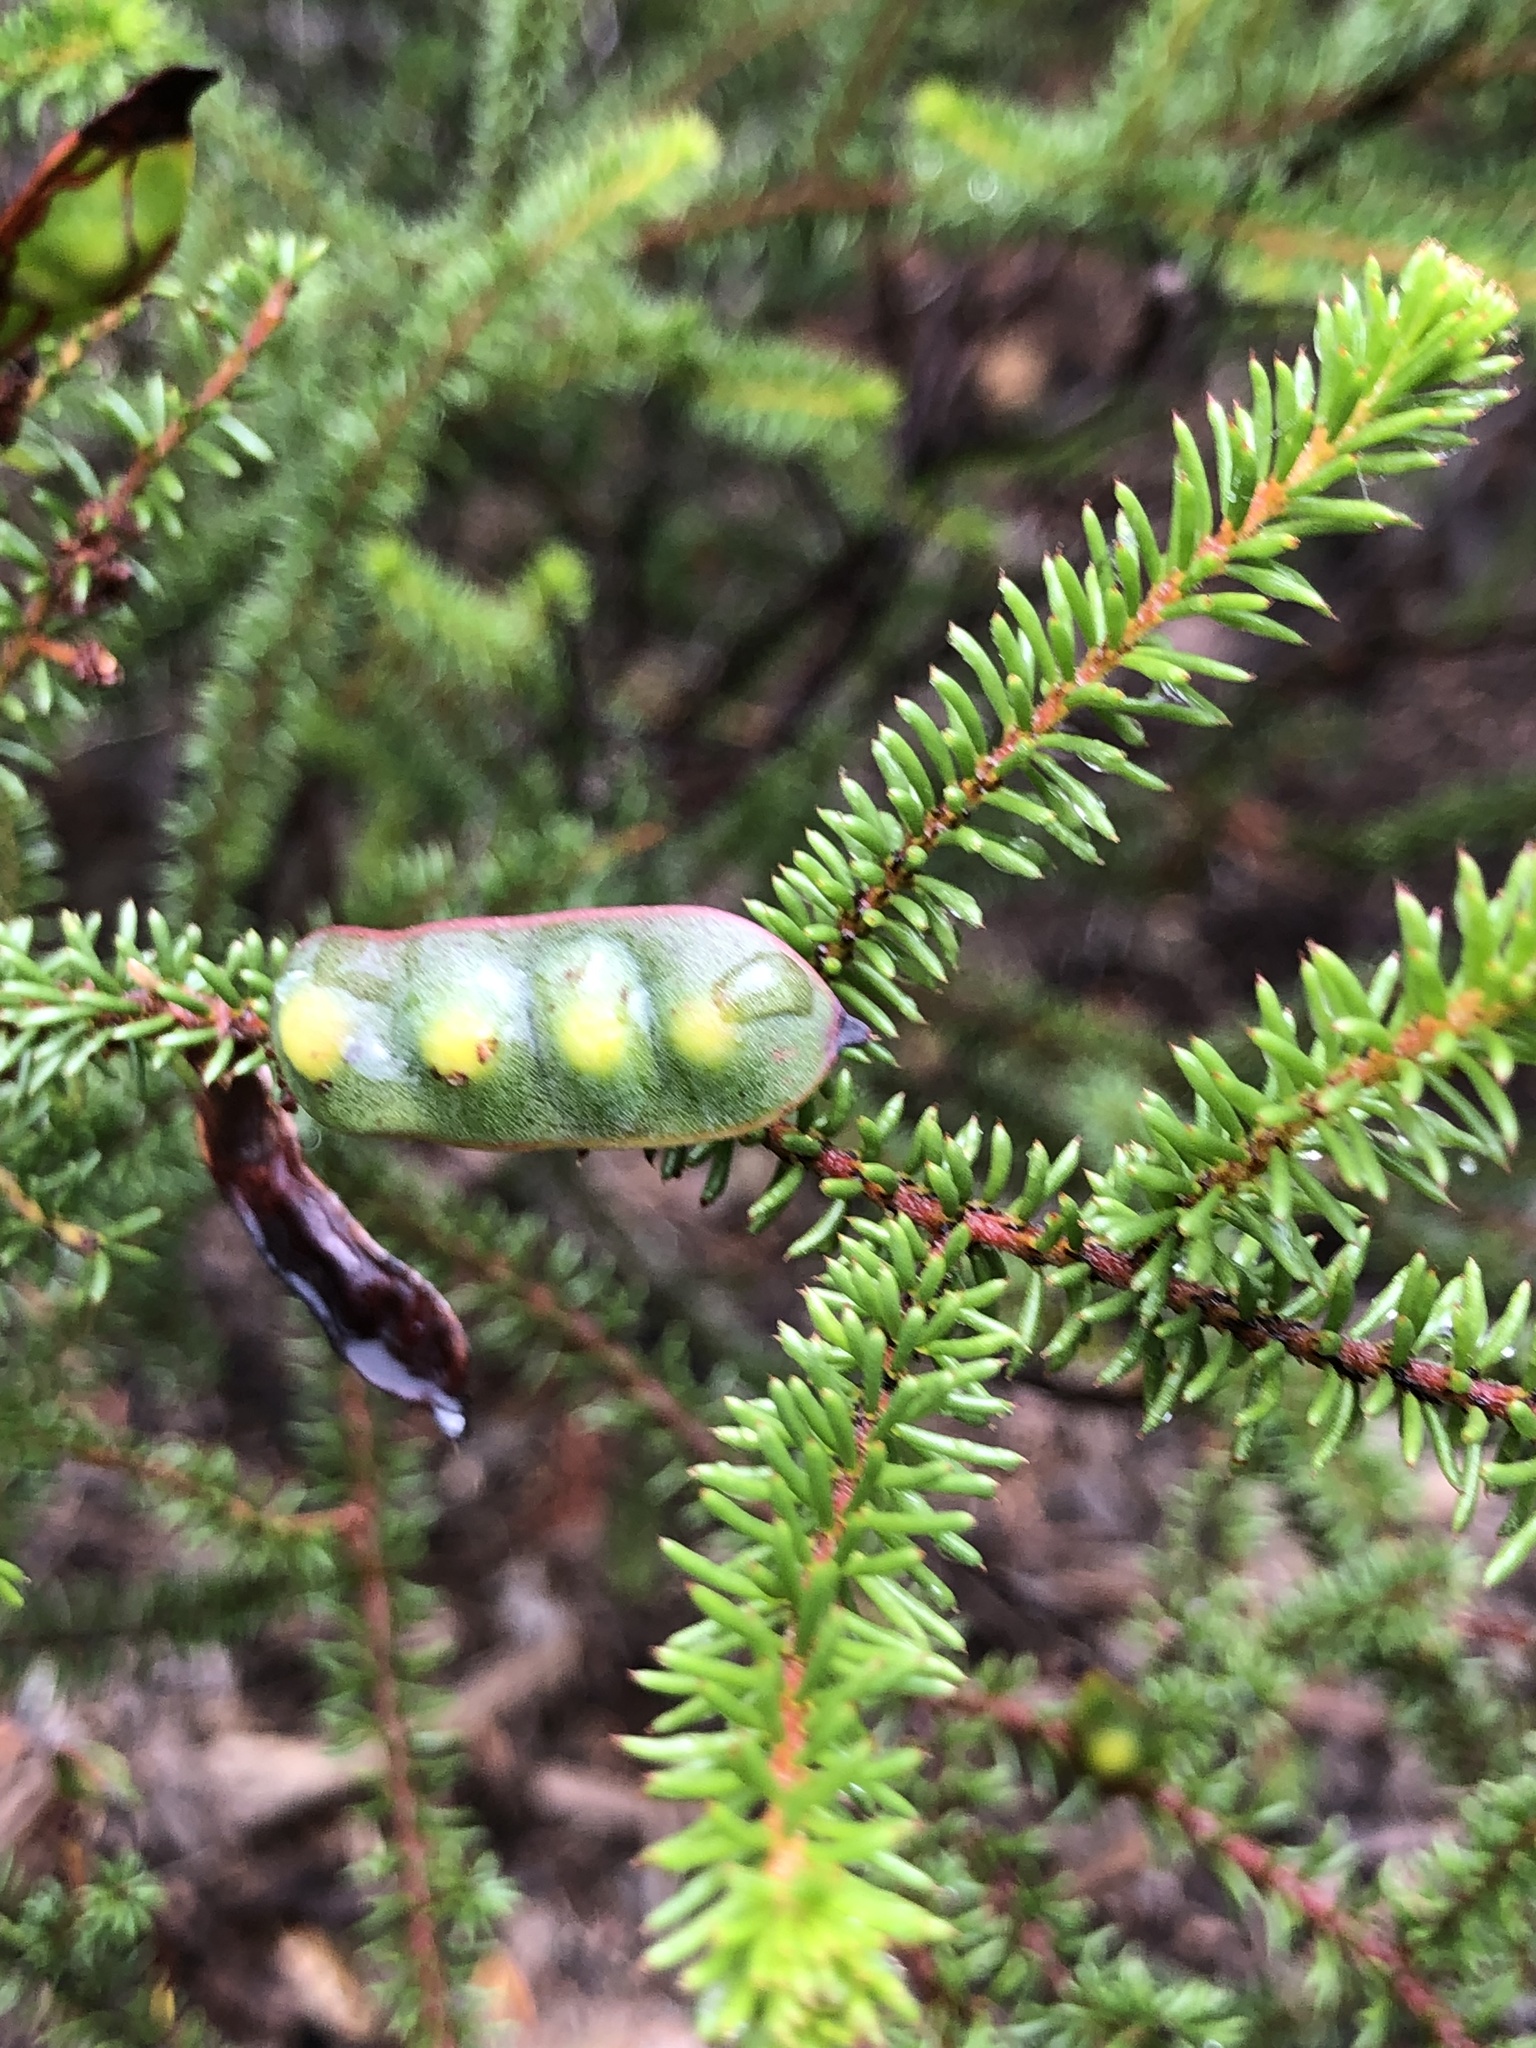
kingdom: Plantae
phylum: Tracheophyta
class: Magnoliopsida
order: Fabales
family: Fabaceae
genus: Acacia
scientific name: Acacia brunioides
